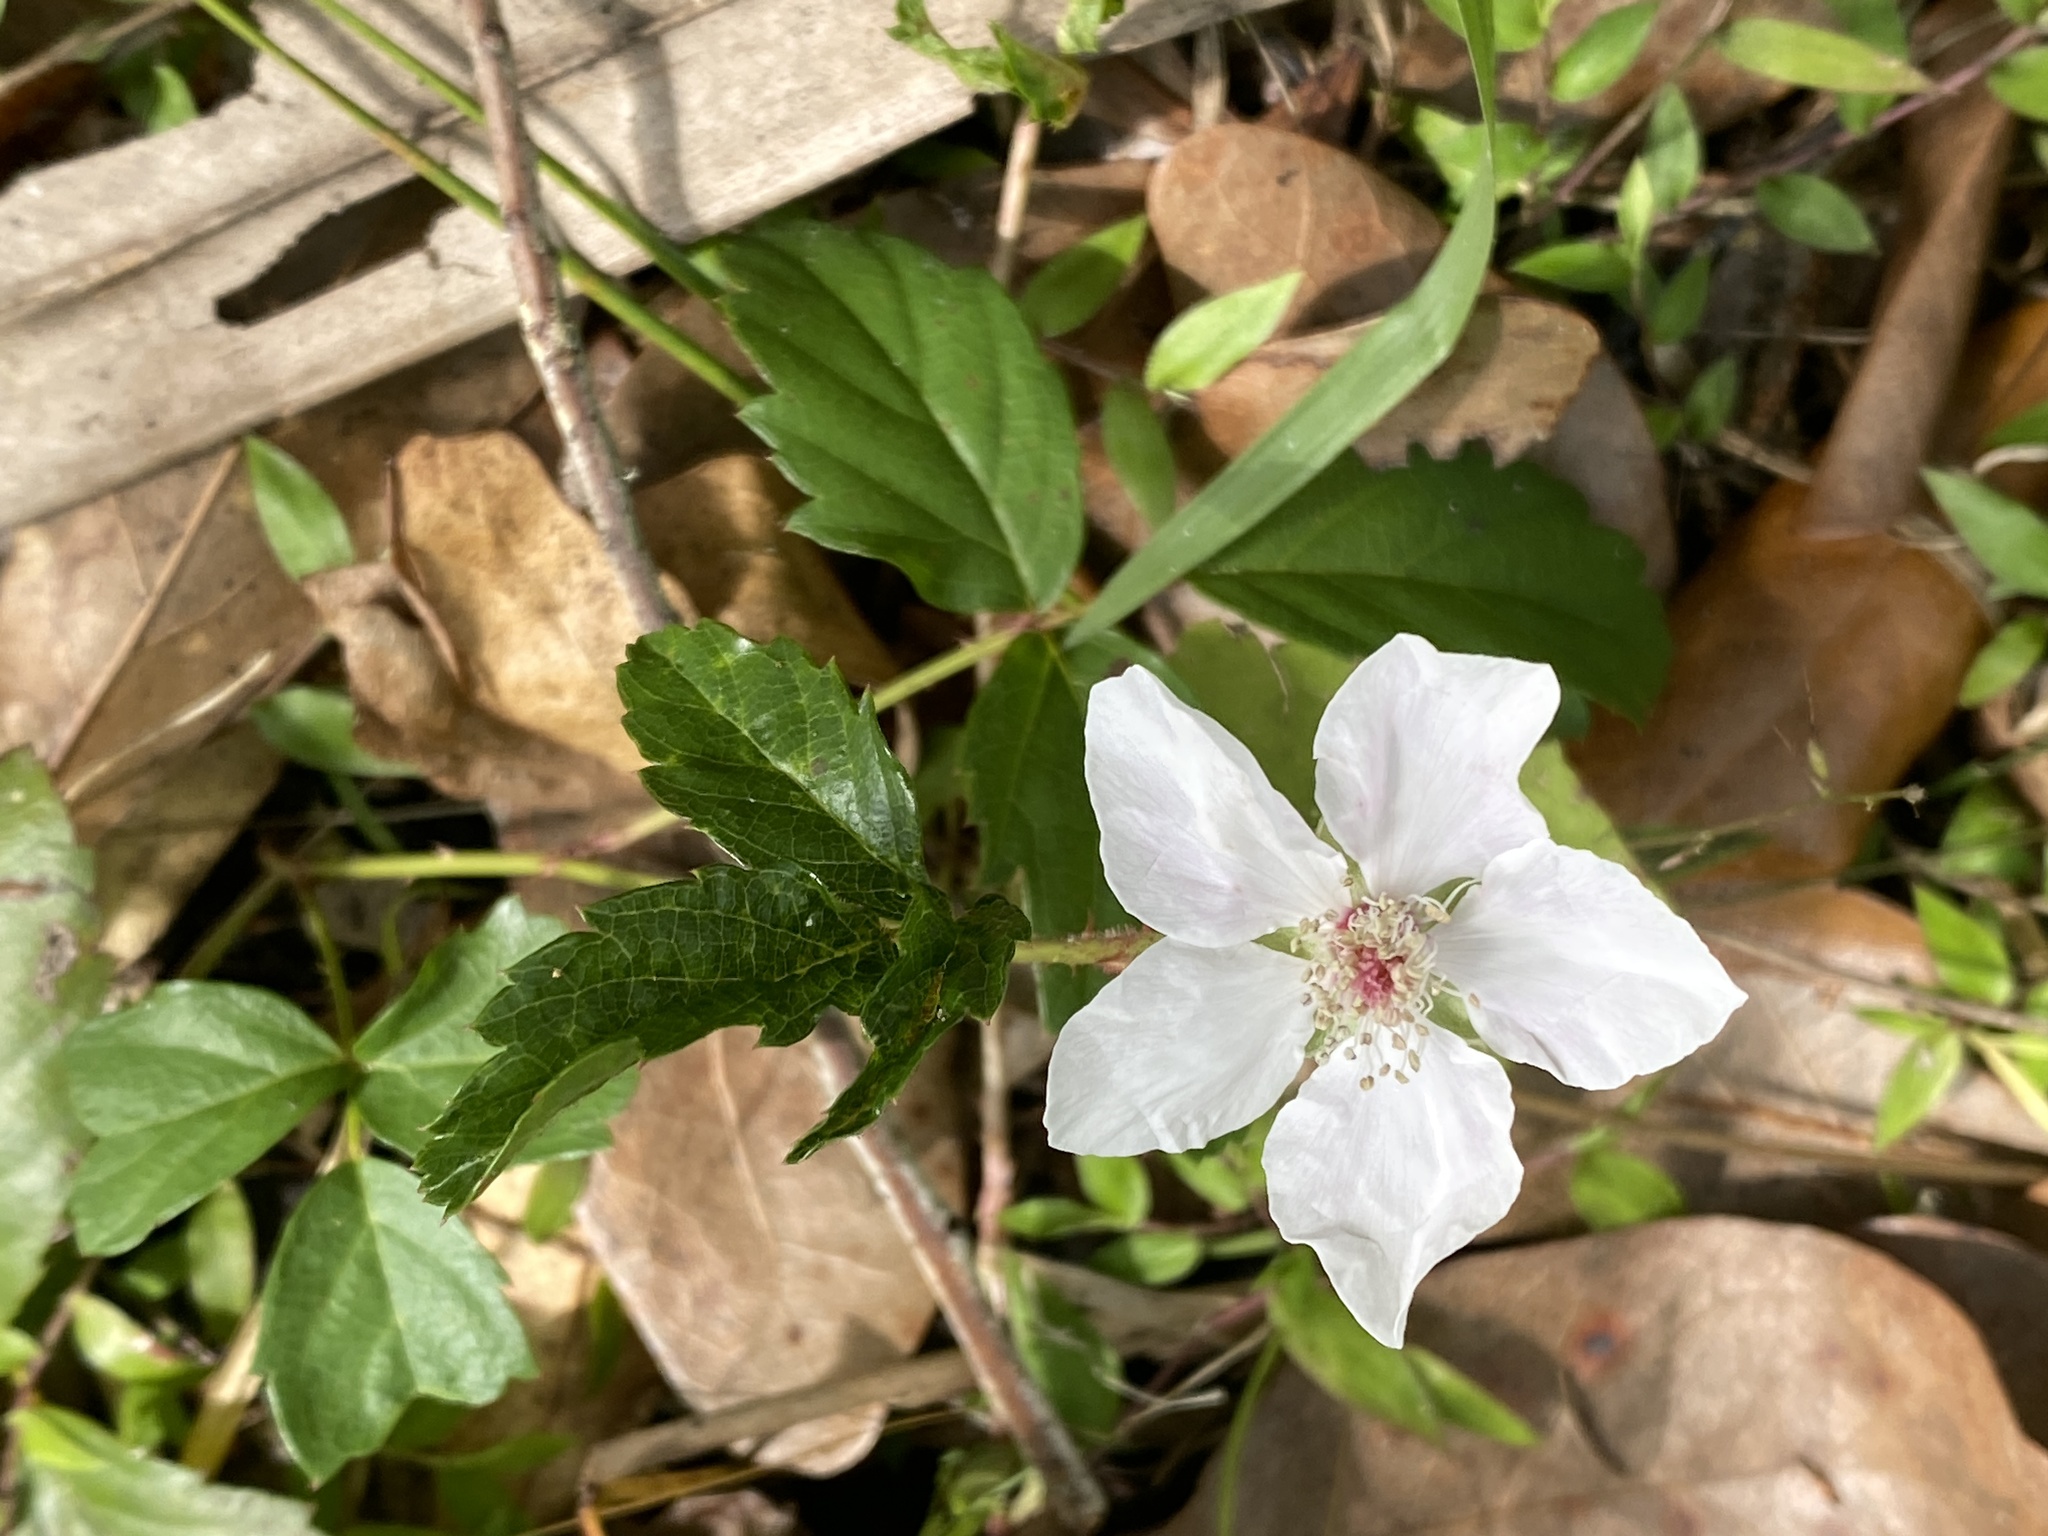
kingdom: Plantae
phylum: Tracheophyta
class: Magnoliopsida
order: Rosales
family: Rosaceae
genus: Rubus
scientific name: Rubus trivialis
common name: Southern dewberry
